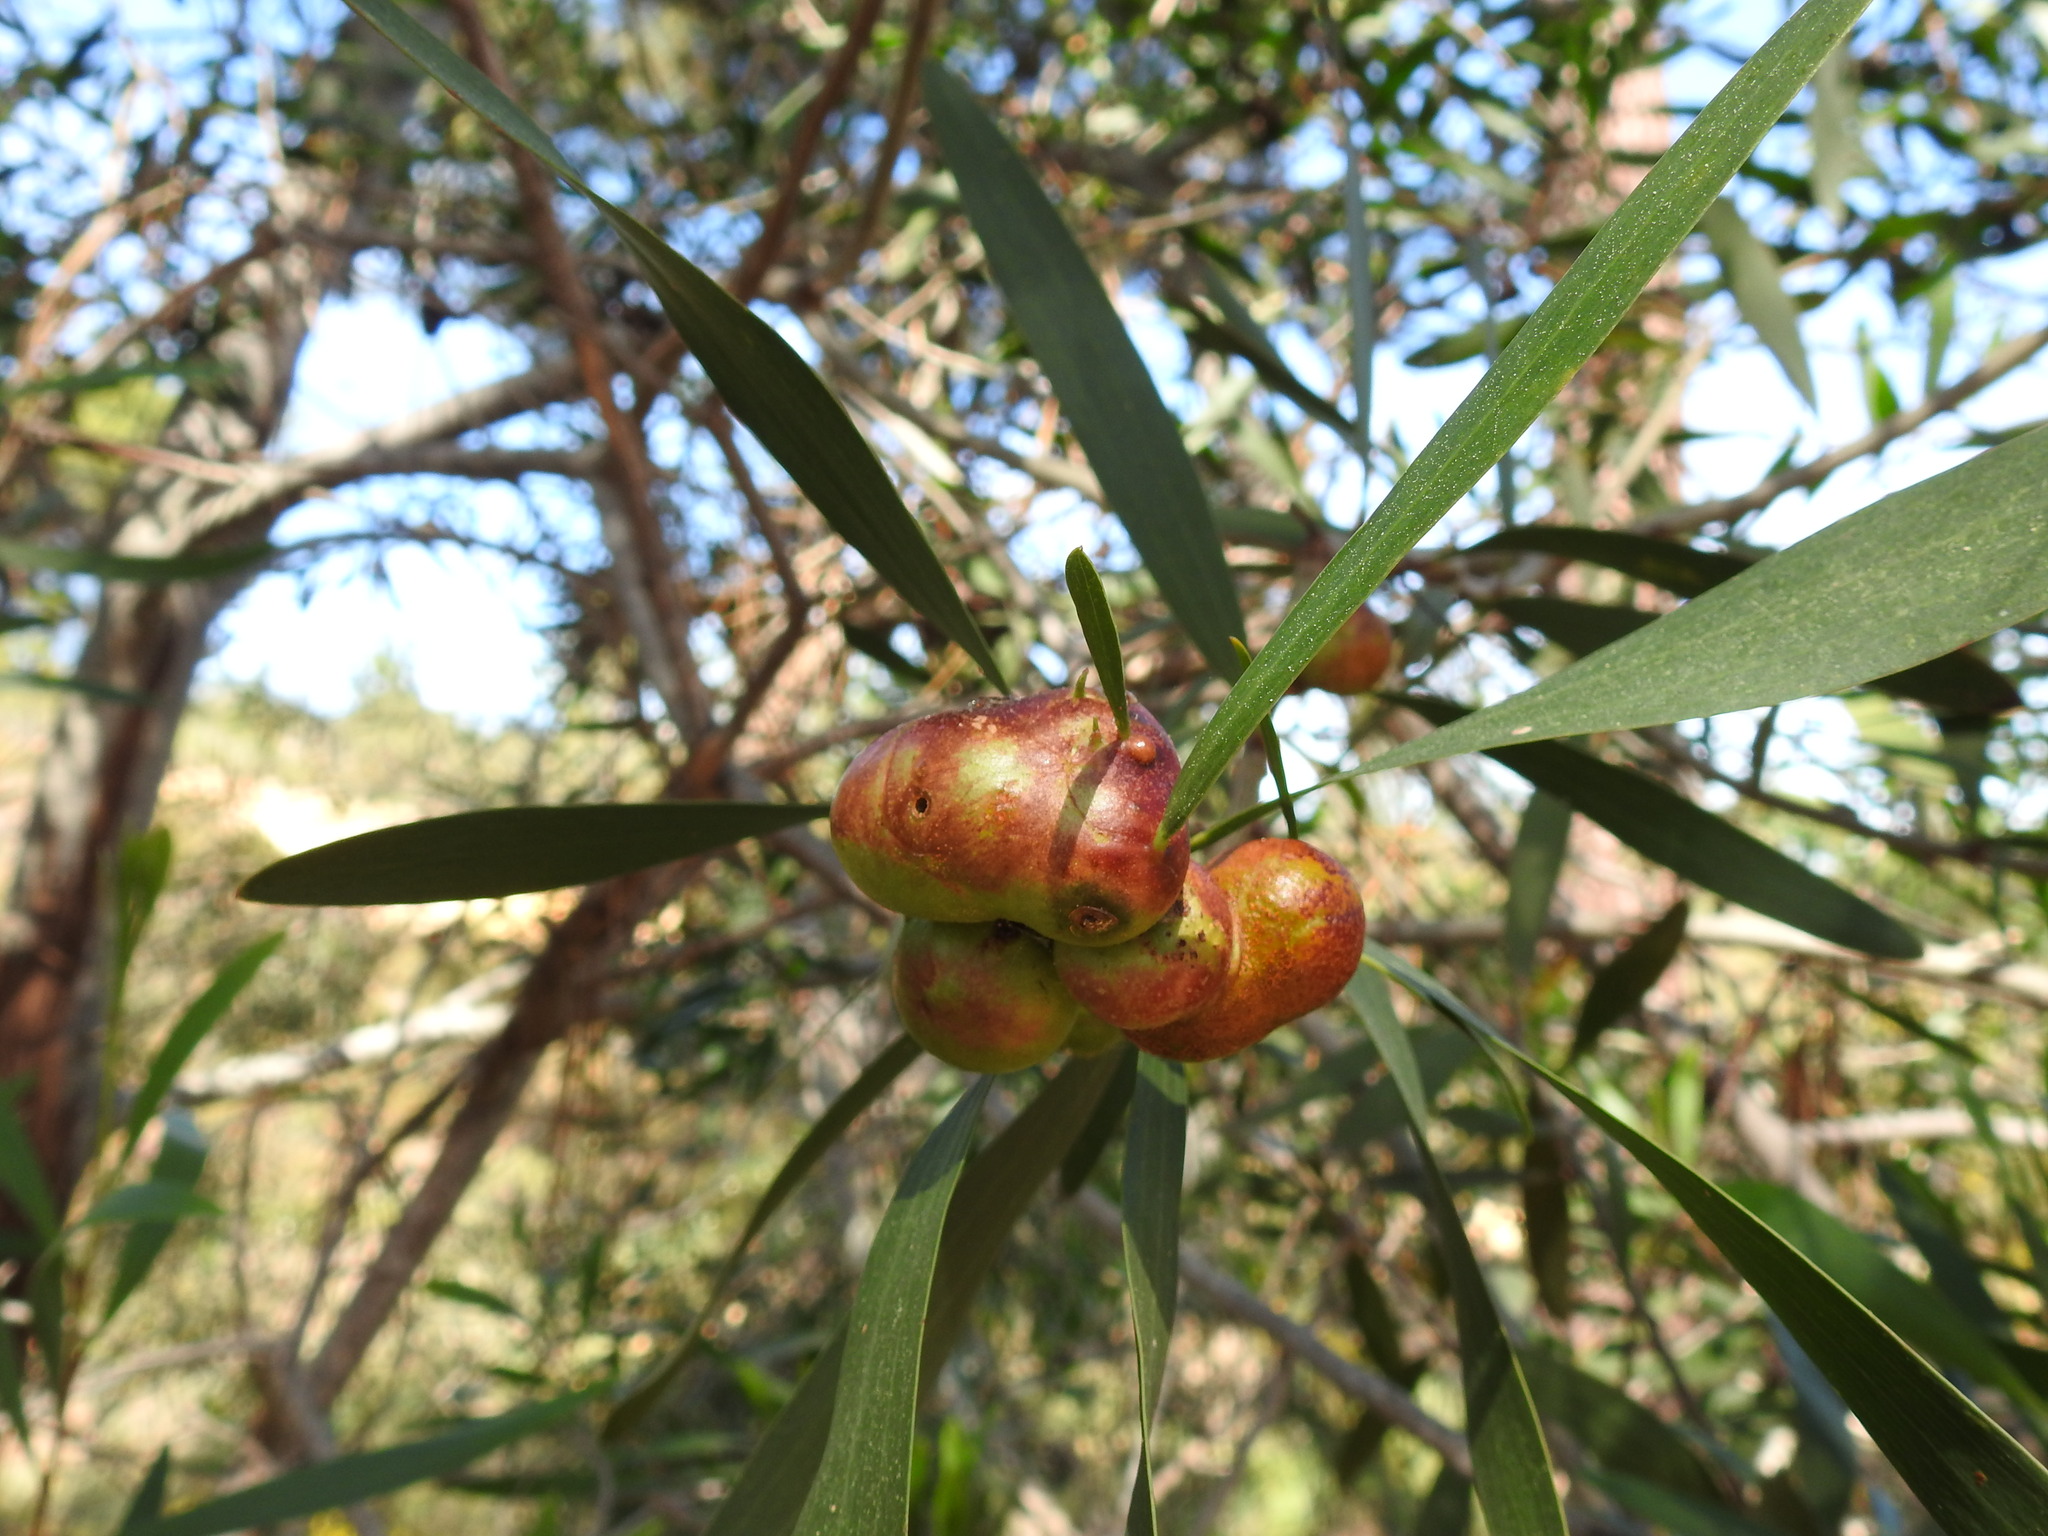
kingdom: Animalia
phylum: Arthropoda
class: Insecta
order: Hymenoptera
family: Pteromalidae
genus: Trichilogaster
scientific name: Trichilogaster acaciaelongifoliae
